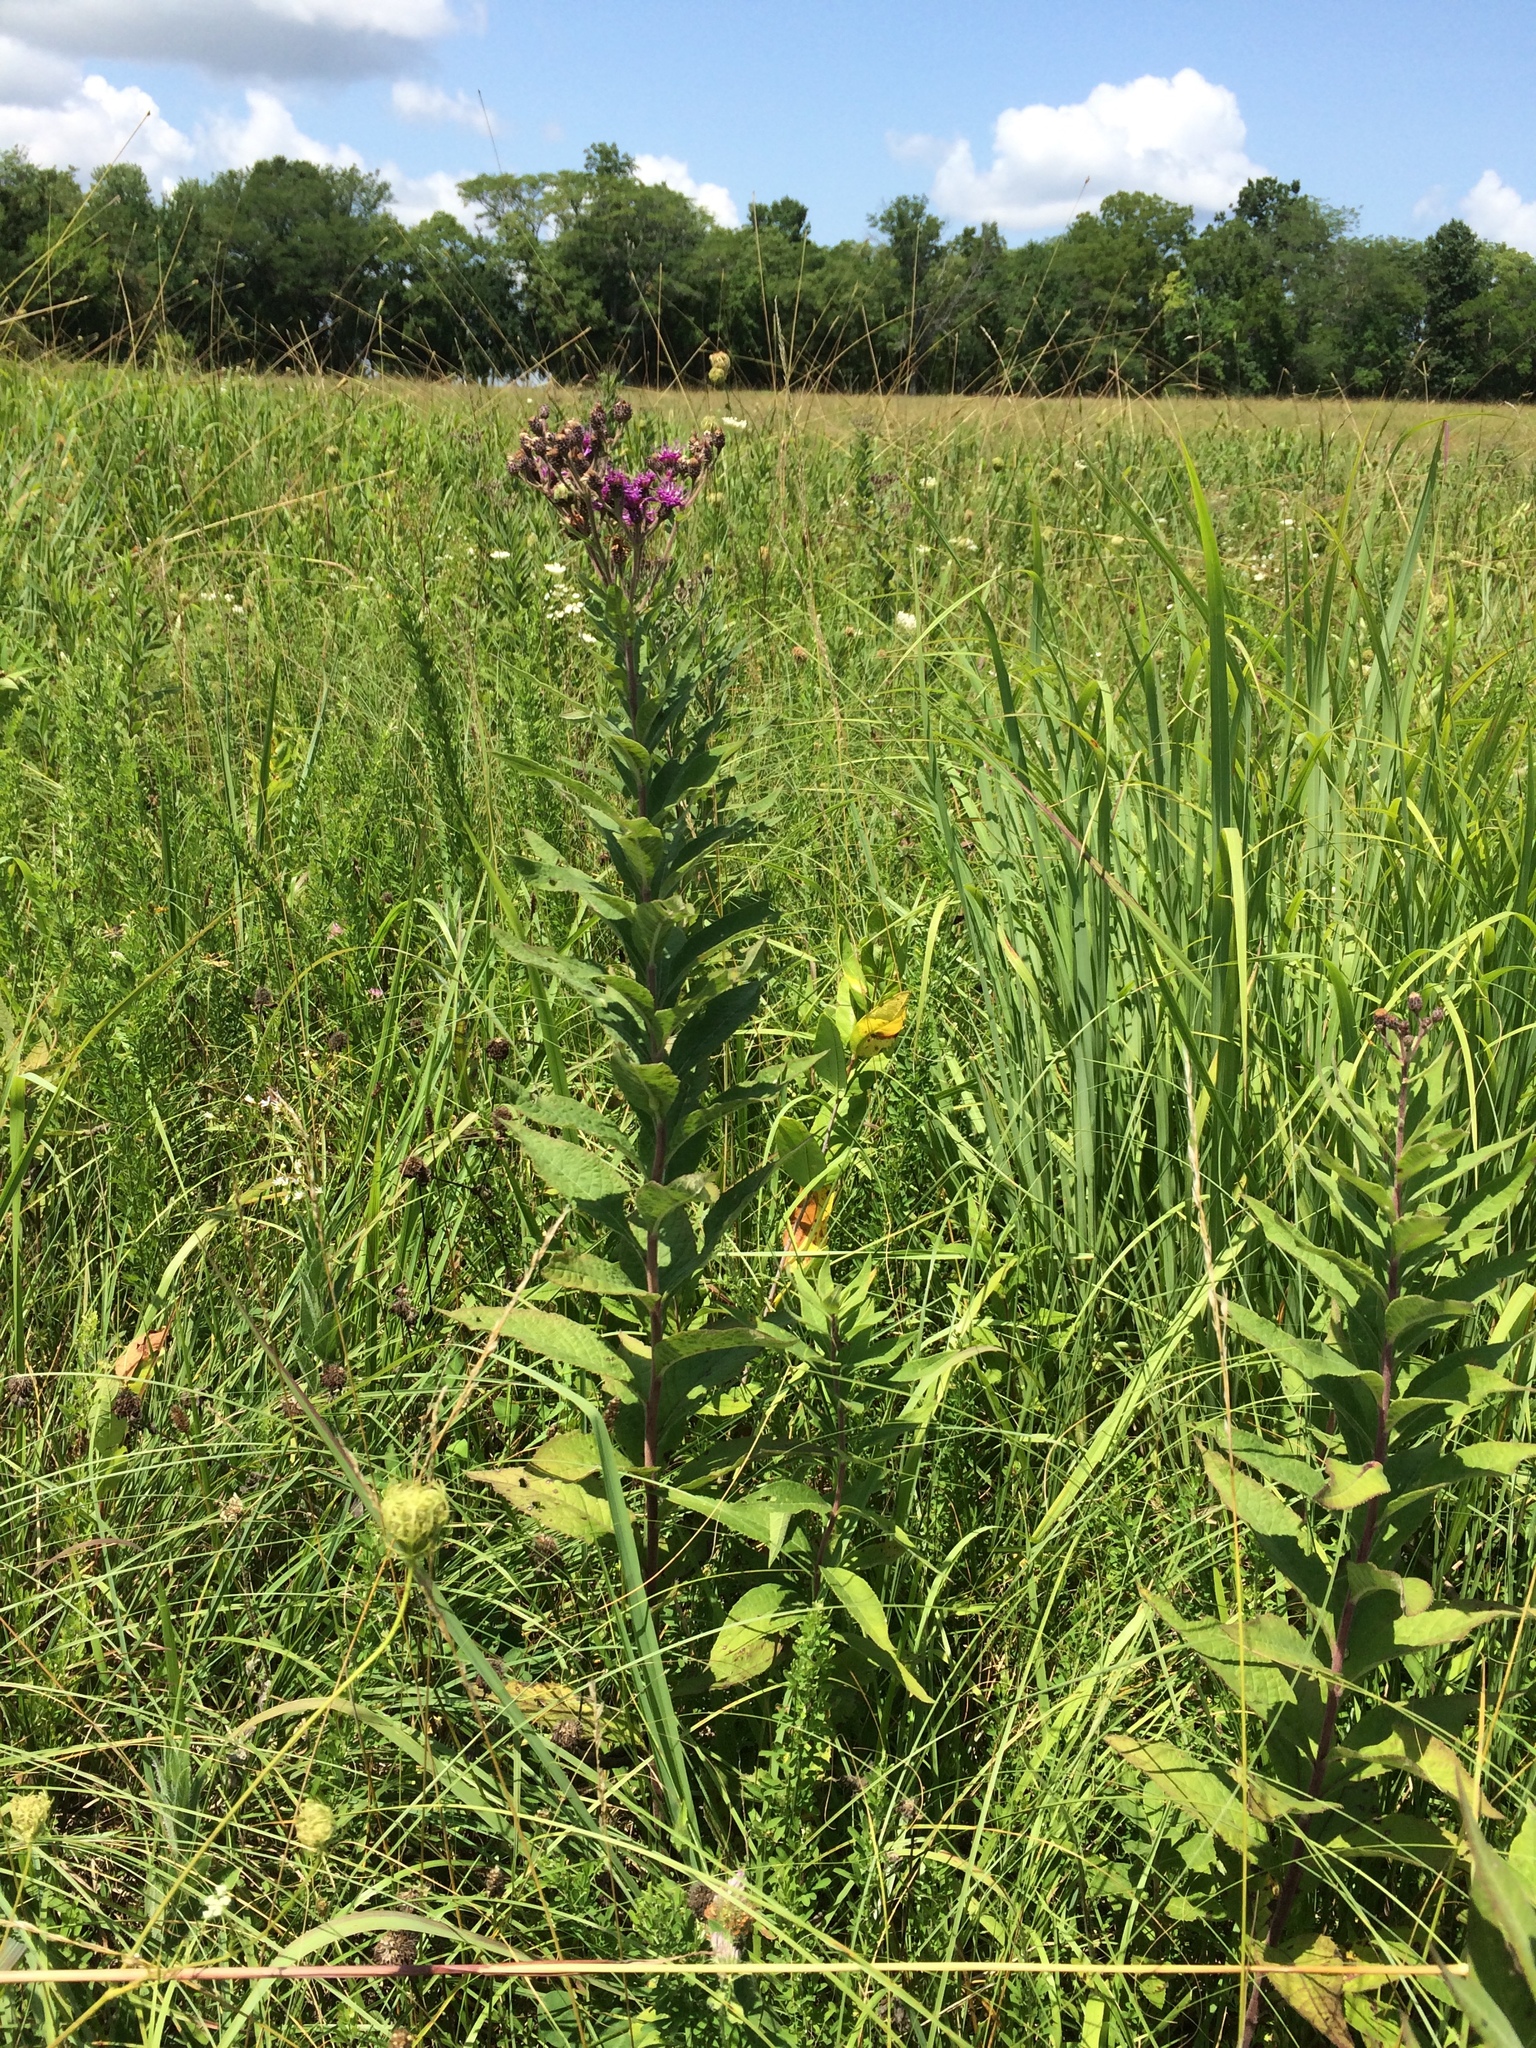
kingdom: Plantae
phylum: Tracheophyta
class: Magnoliopsida
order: Asterales
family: Asteraceae
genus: Vernonia
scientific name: Vernonia baldwinii
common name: Western ironweed
